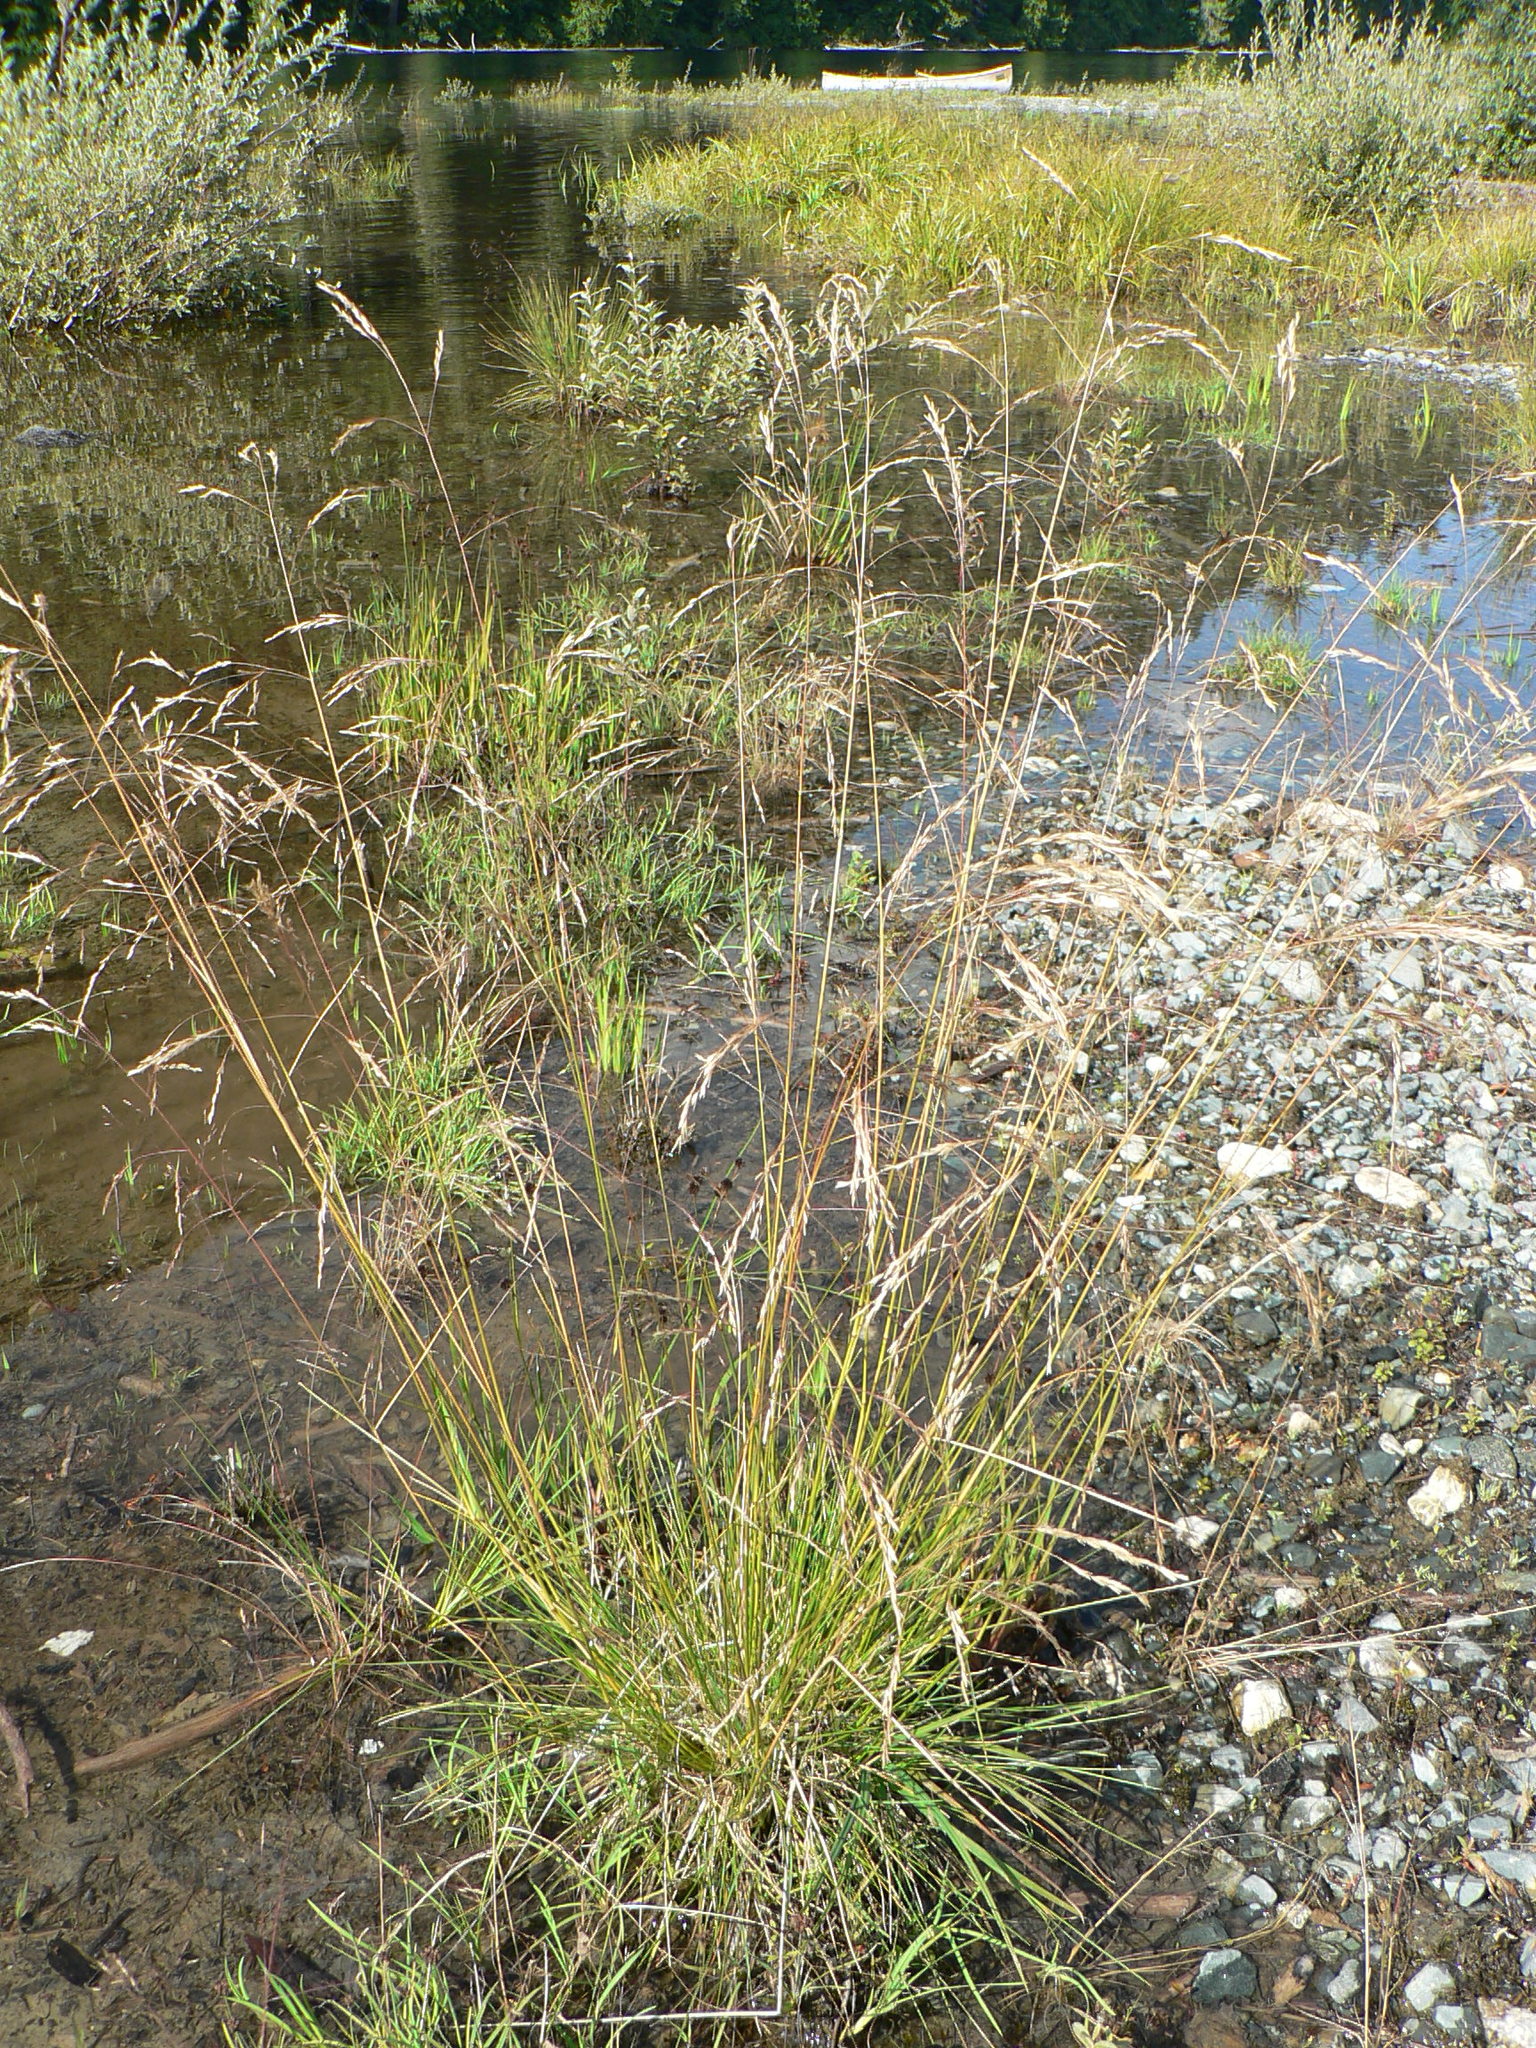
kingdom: Plantae
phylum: Tracheophyta
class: Liliopsida
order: Poales
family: Poaceae
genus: Deschampsia
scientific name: Deschampsia cespitosa
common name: Tufted hair-grass
